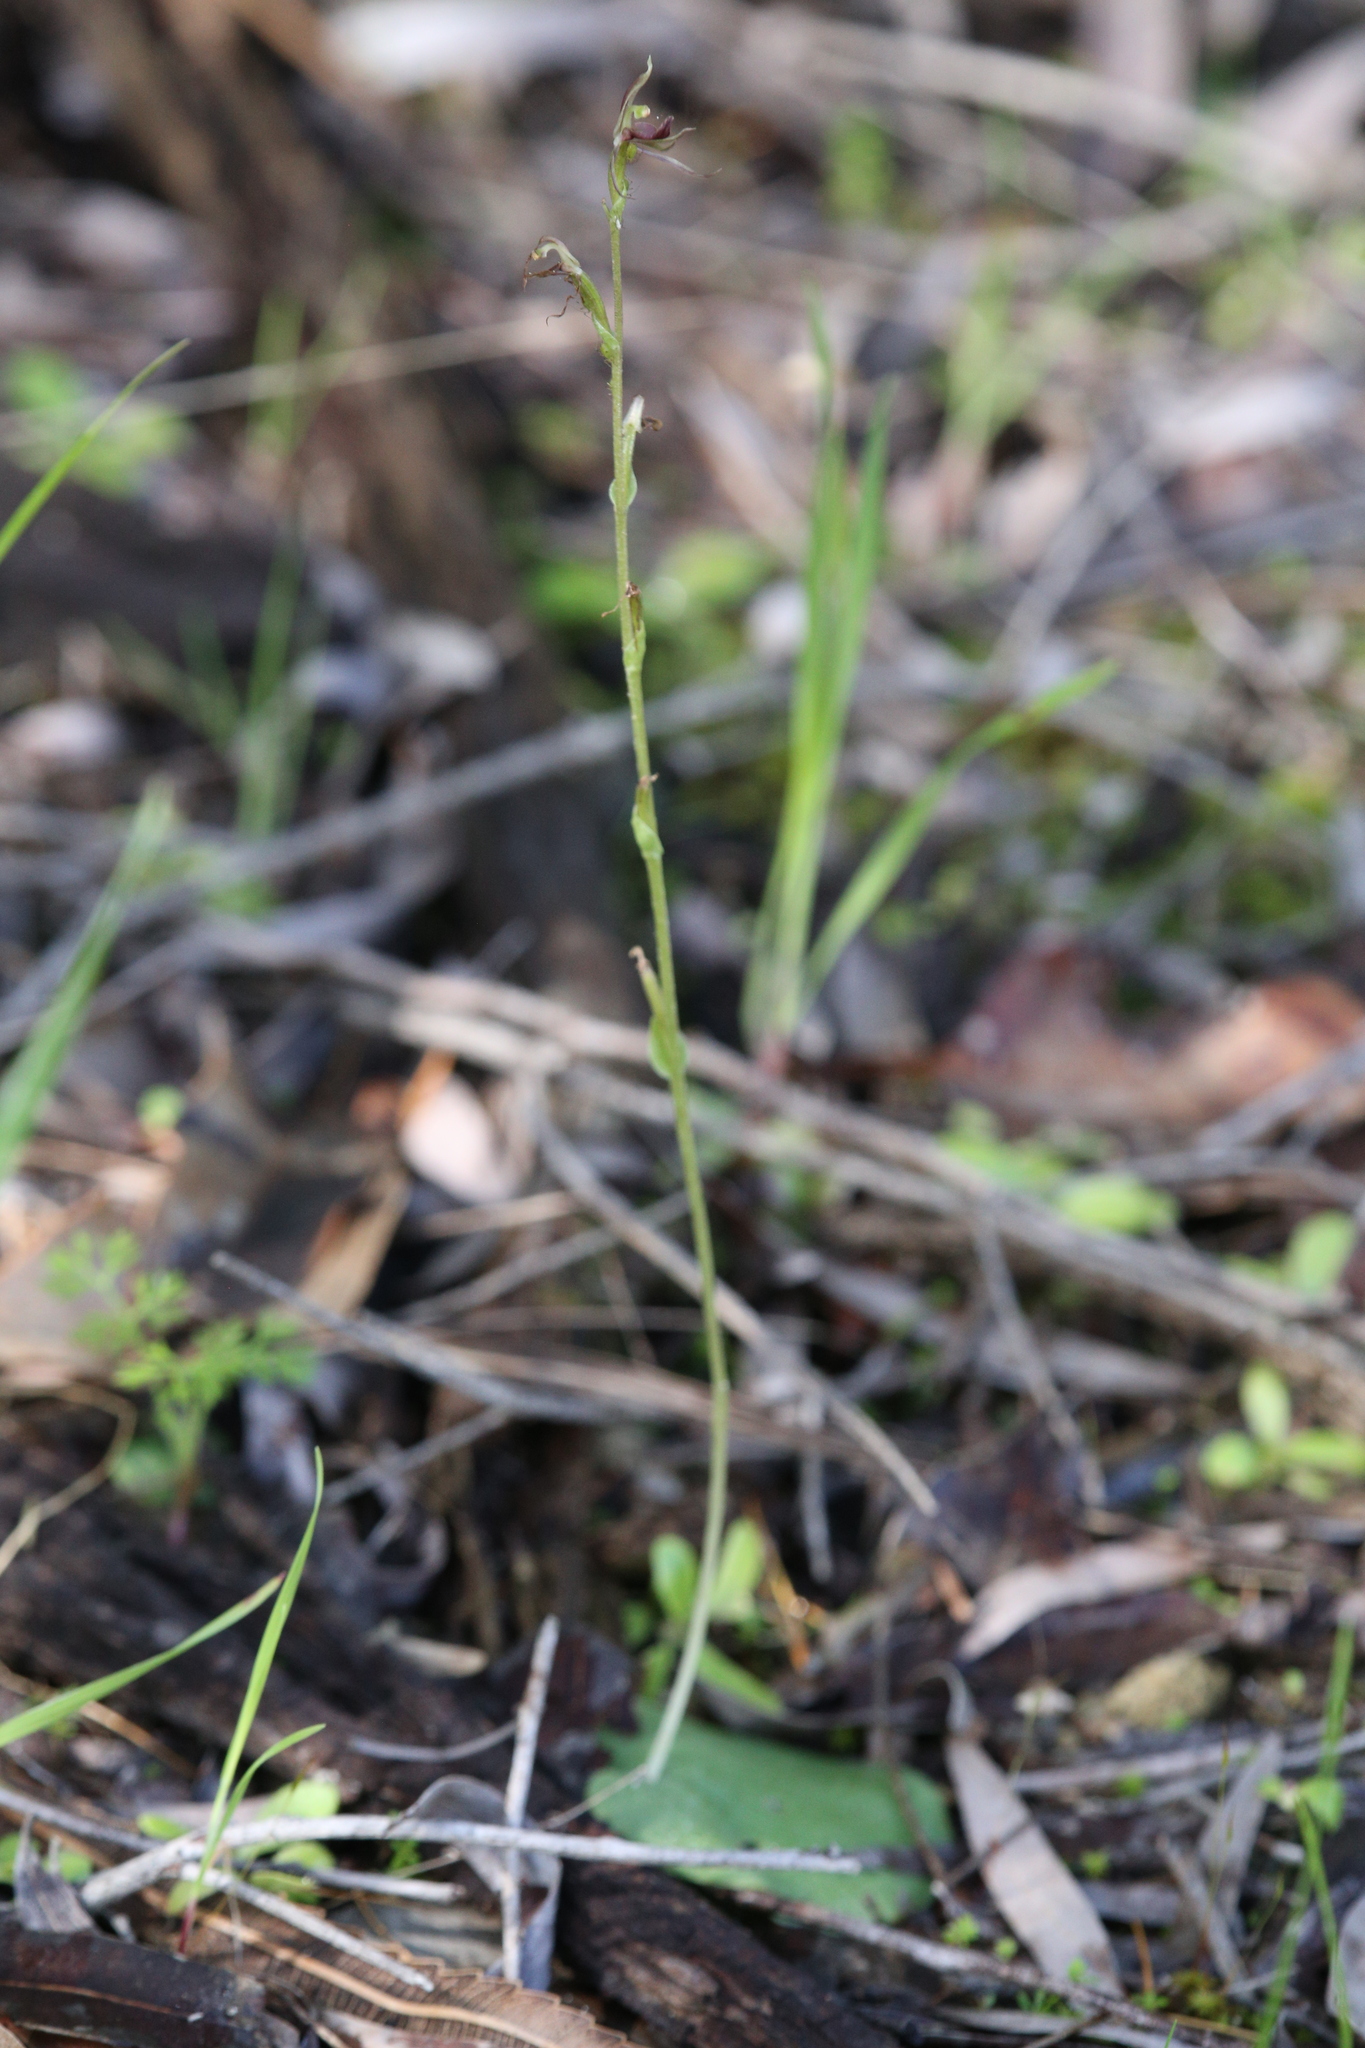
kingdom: Plantae
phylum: Tracheophyta
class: Liliopsida
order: Asparagales
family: Orchidaceae
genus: Cyrtostylis
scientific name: Cyrtostylis huegelii
